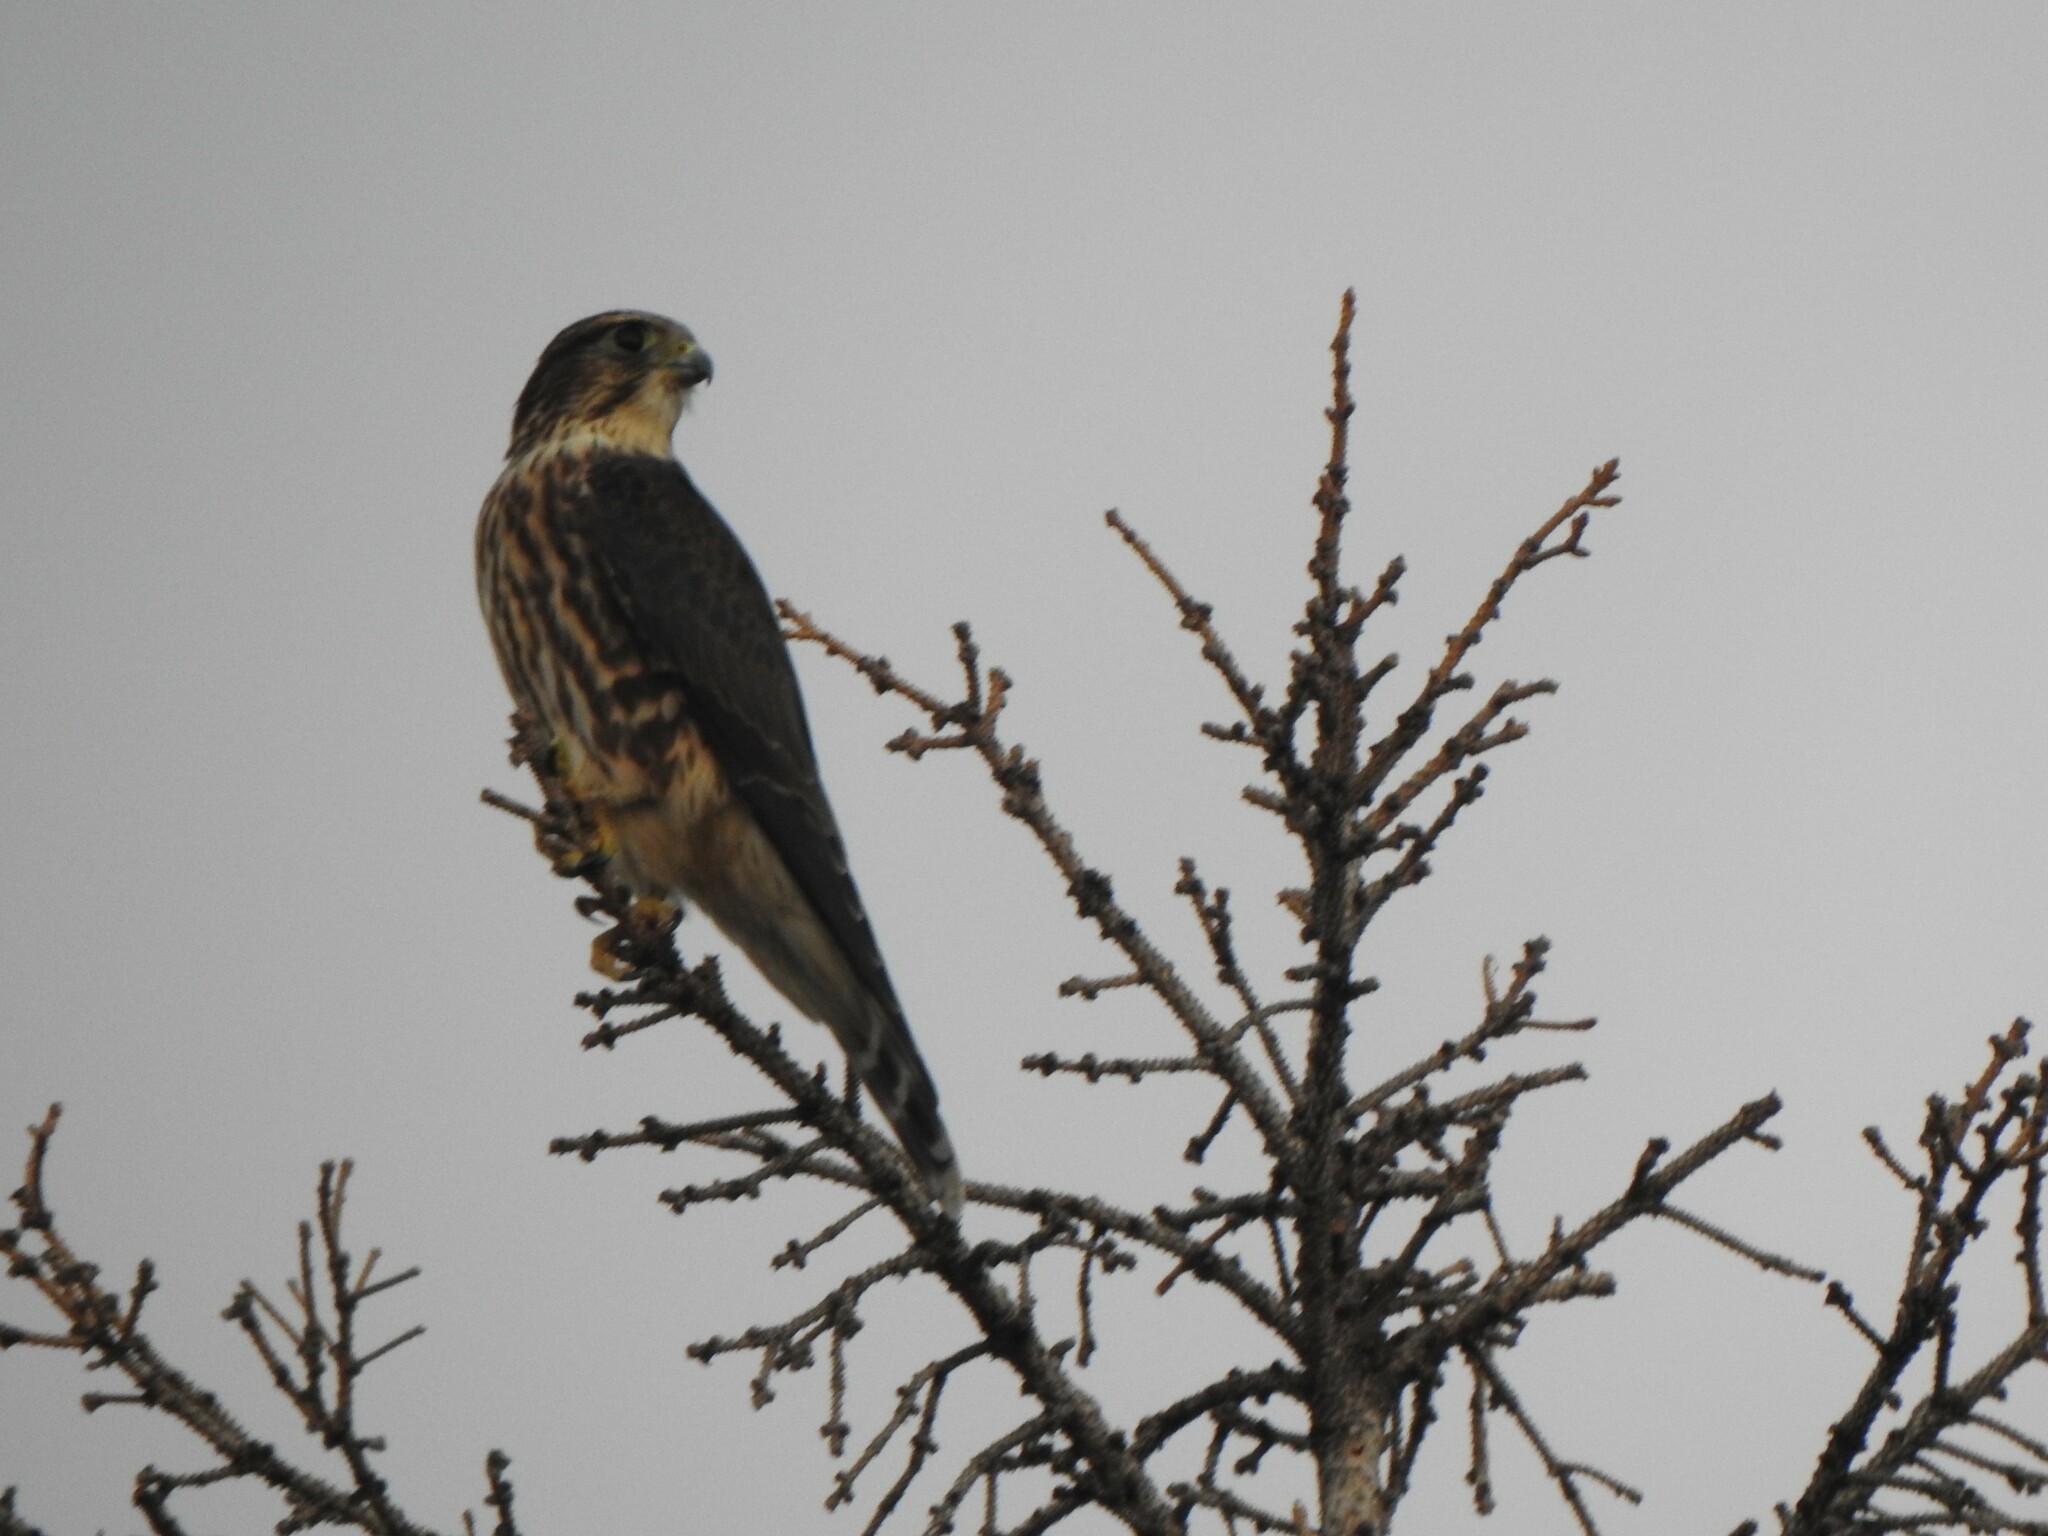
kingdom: Animalia
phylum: Chordata
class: Aves
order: Falconiformes
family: Falconidae
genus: Falco
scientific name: Falco columbarius
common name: Merlin
